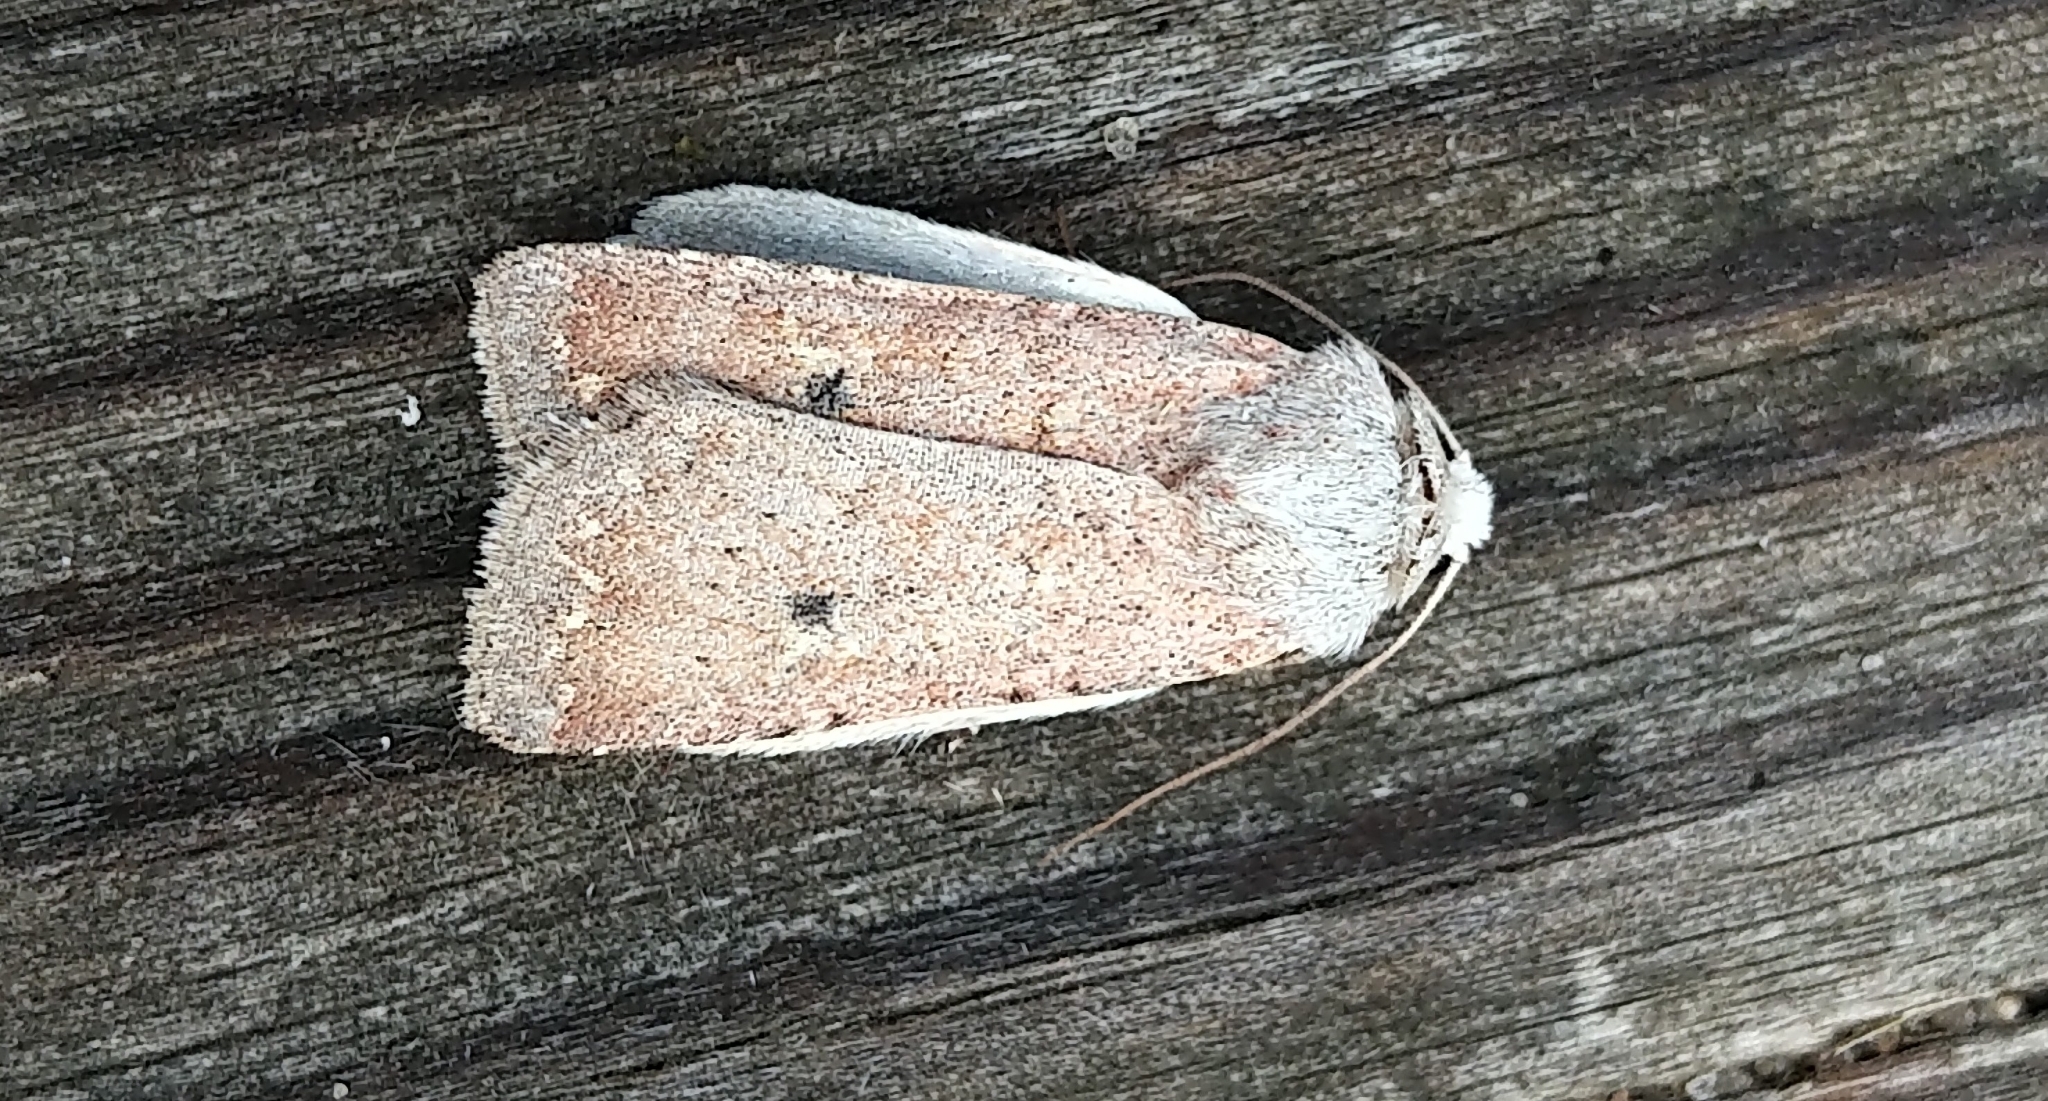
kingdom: Animalia
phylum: Arthropoda
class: Insecta
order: Lepidoptera
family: Noctuidae
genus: Euxoa
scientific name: Euxoa scandens
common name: White cutworm
